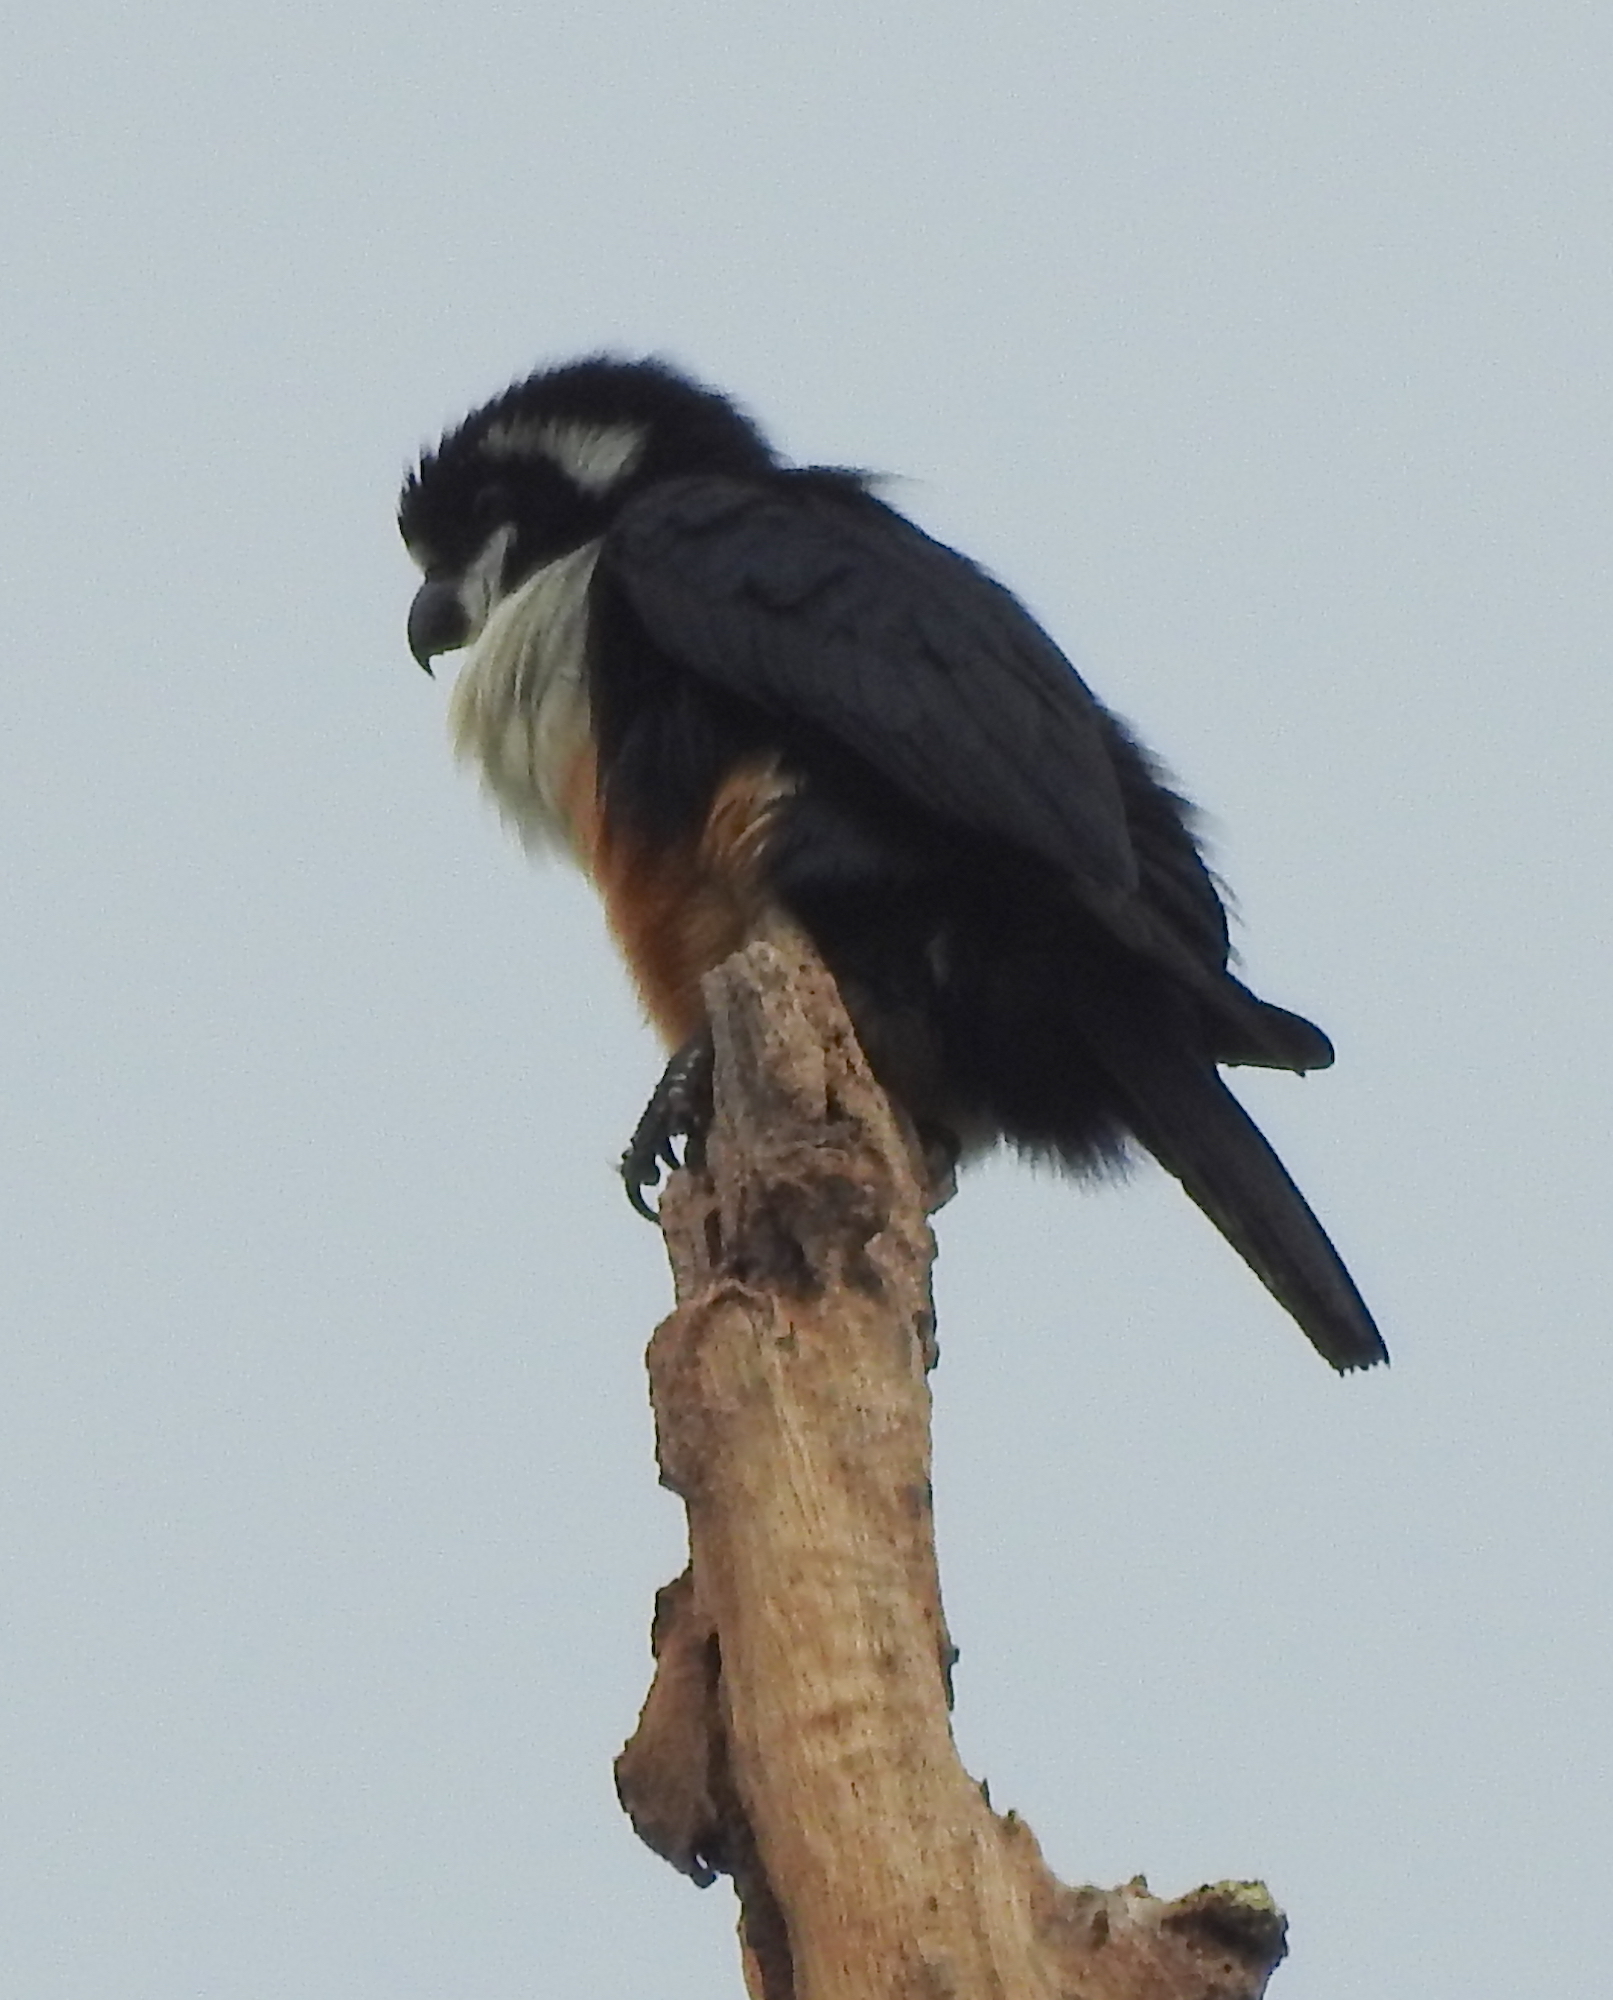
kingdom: Animalia
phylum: Chordata
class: Aves
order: Falconiformes
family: Falconidae
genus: Microhierax
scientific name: Microhierax fringillarius
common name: Black-thighed falconet
